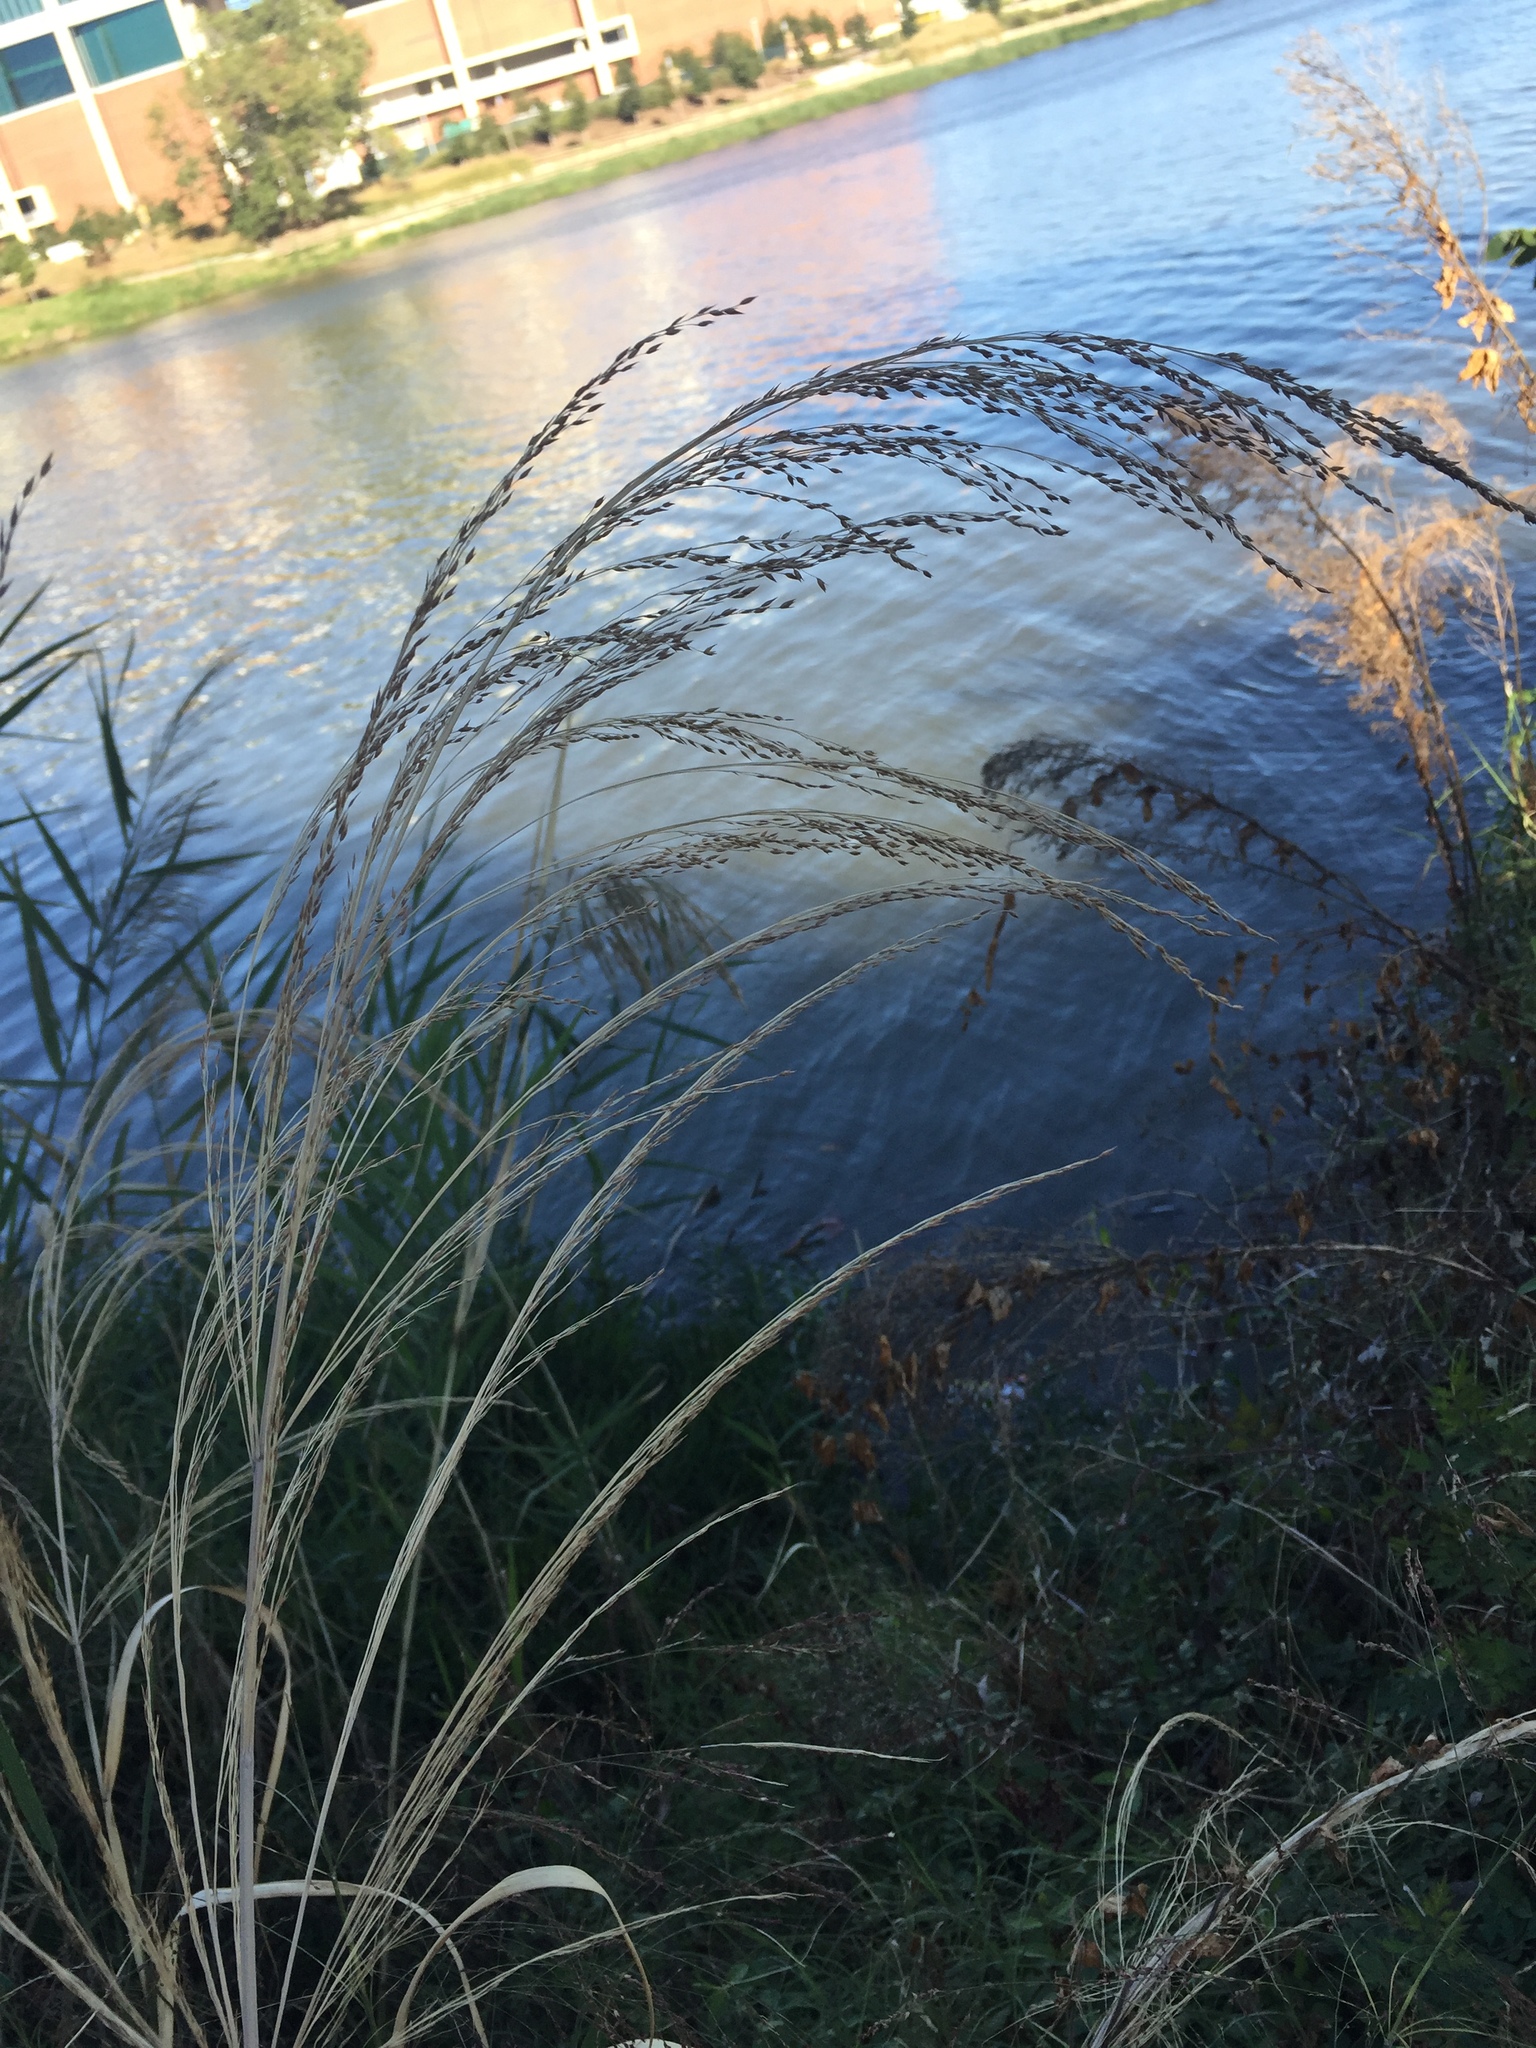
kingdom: Plantae
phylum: Tracheophyta
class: Liliopsida
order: Poales
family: Poaceae
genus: Panicum
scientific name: Panicum virgatum
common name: Switchgrass
